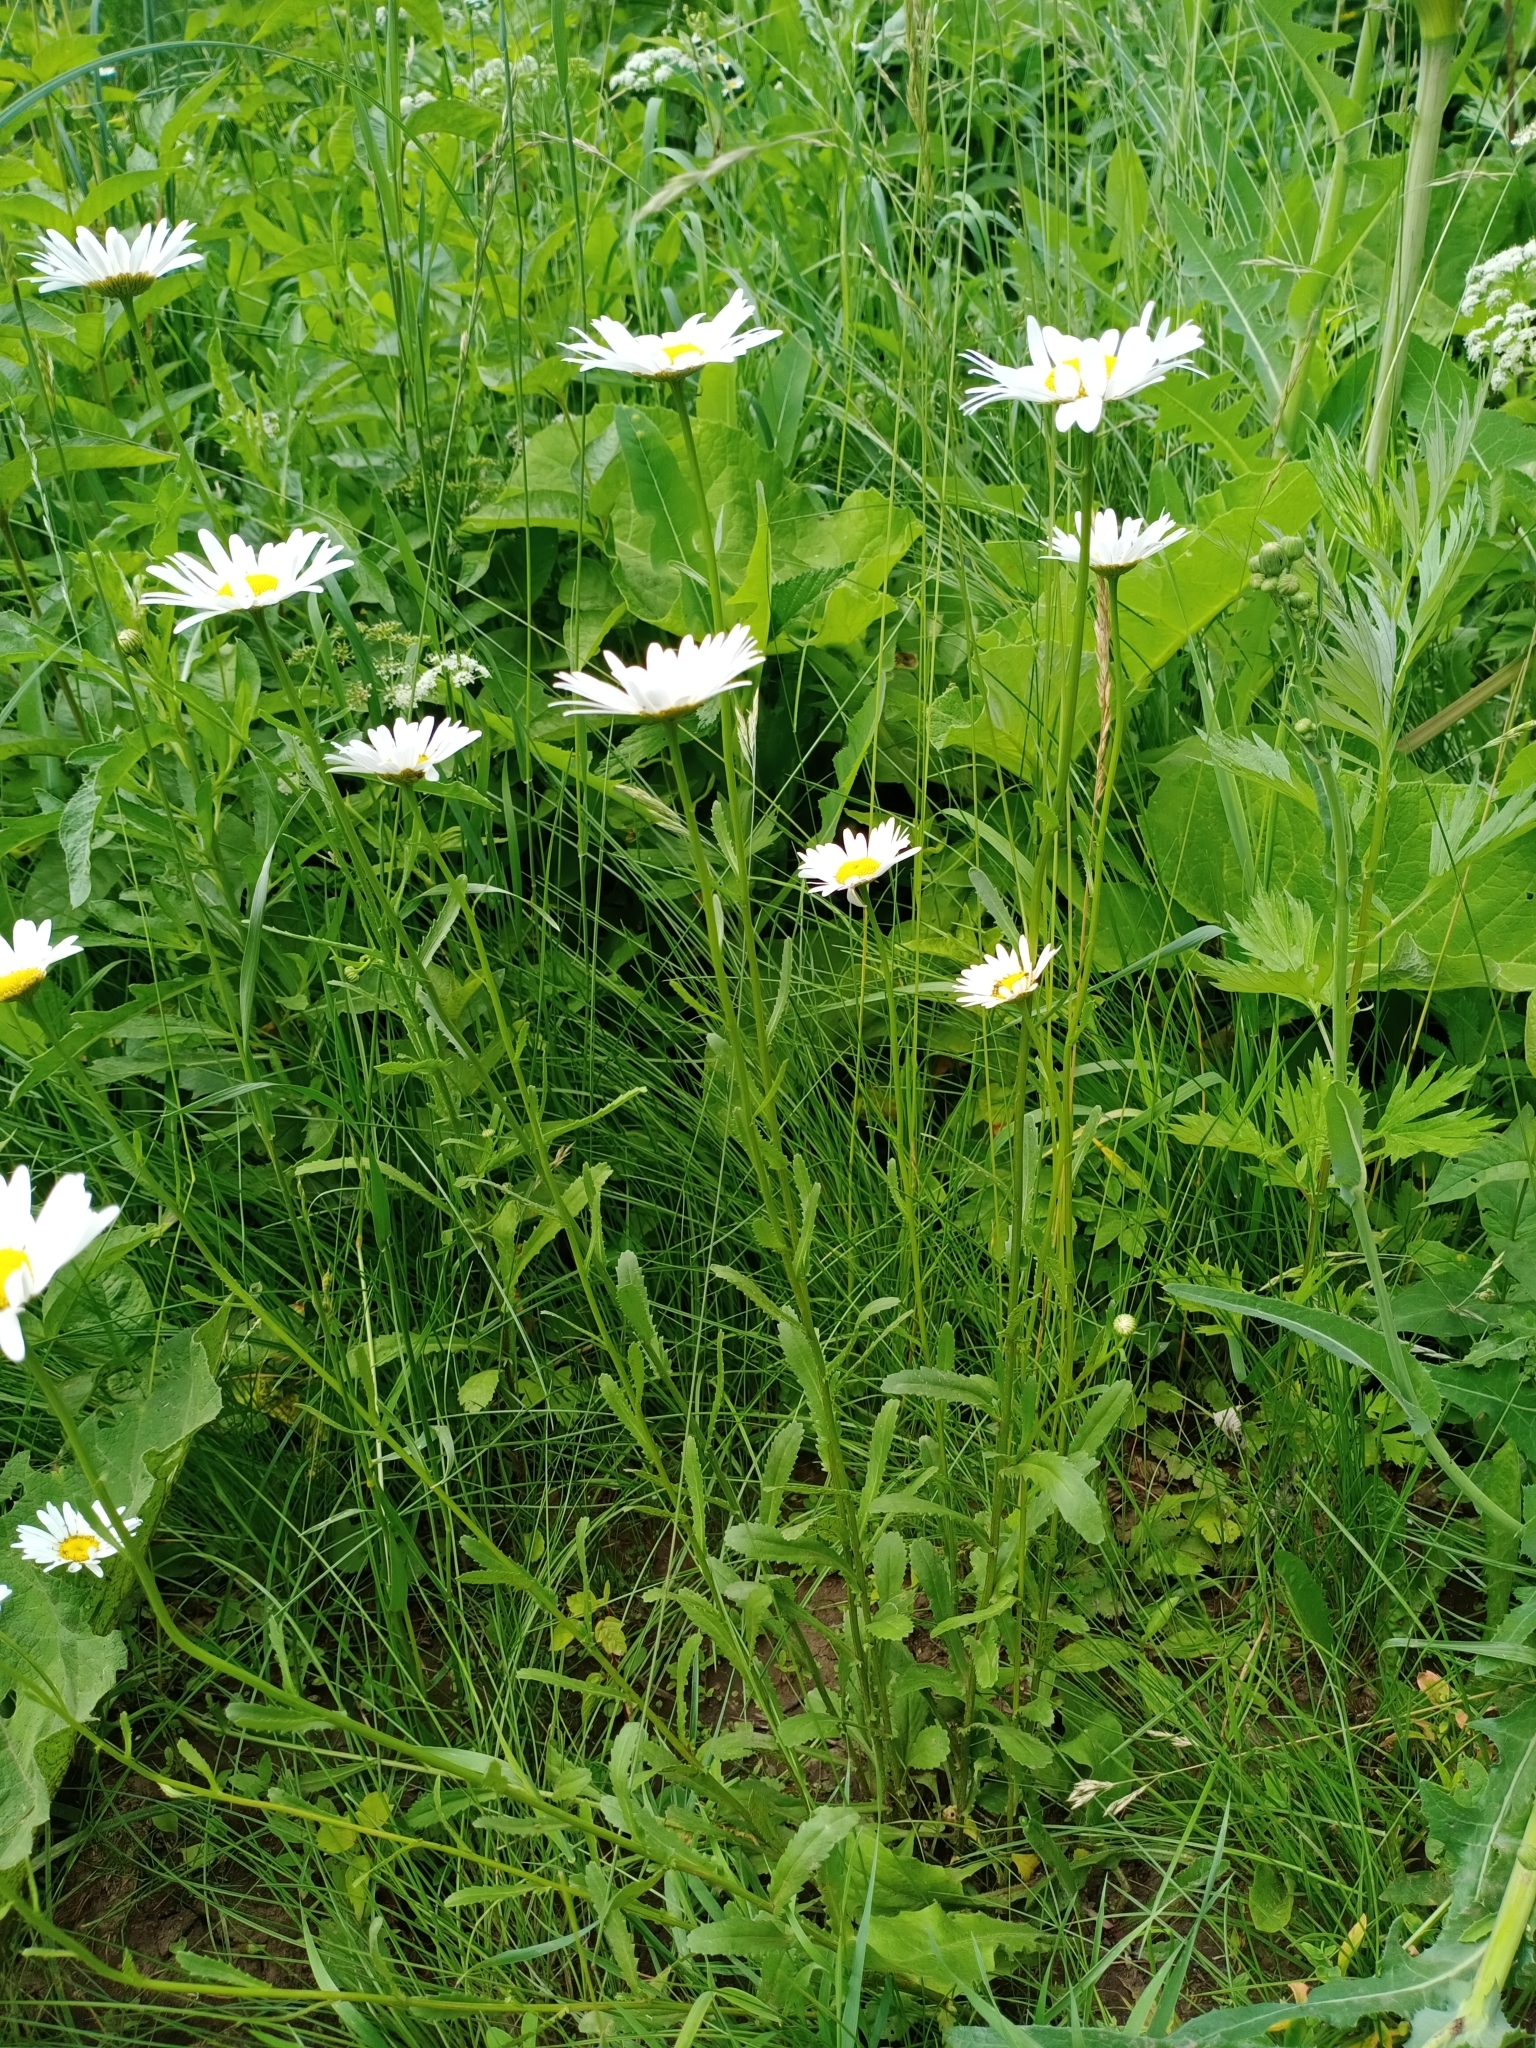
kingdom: Plantae
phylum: Tracheophyta
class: Magnoliopsida
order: Asterales
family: Asteraceae
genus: Leucanthemum
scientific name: Leucanthemum vulgare
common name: Oxeye daisy
